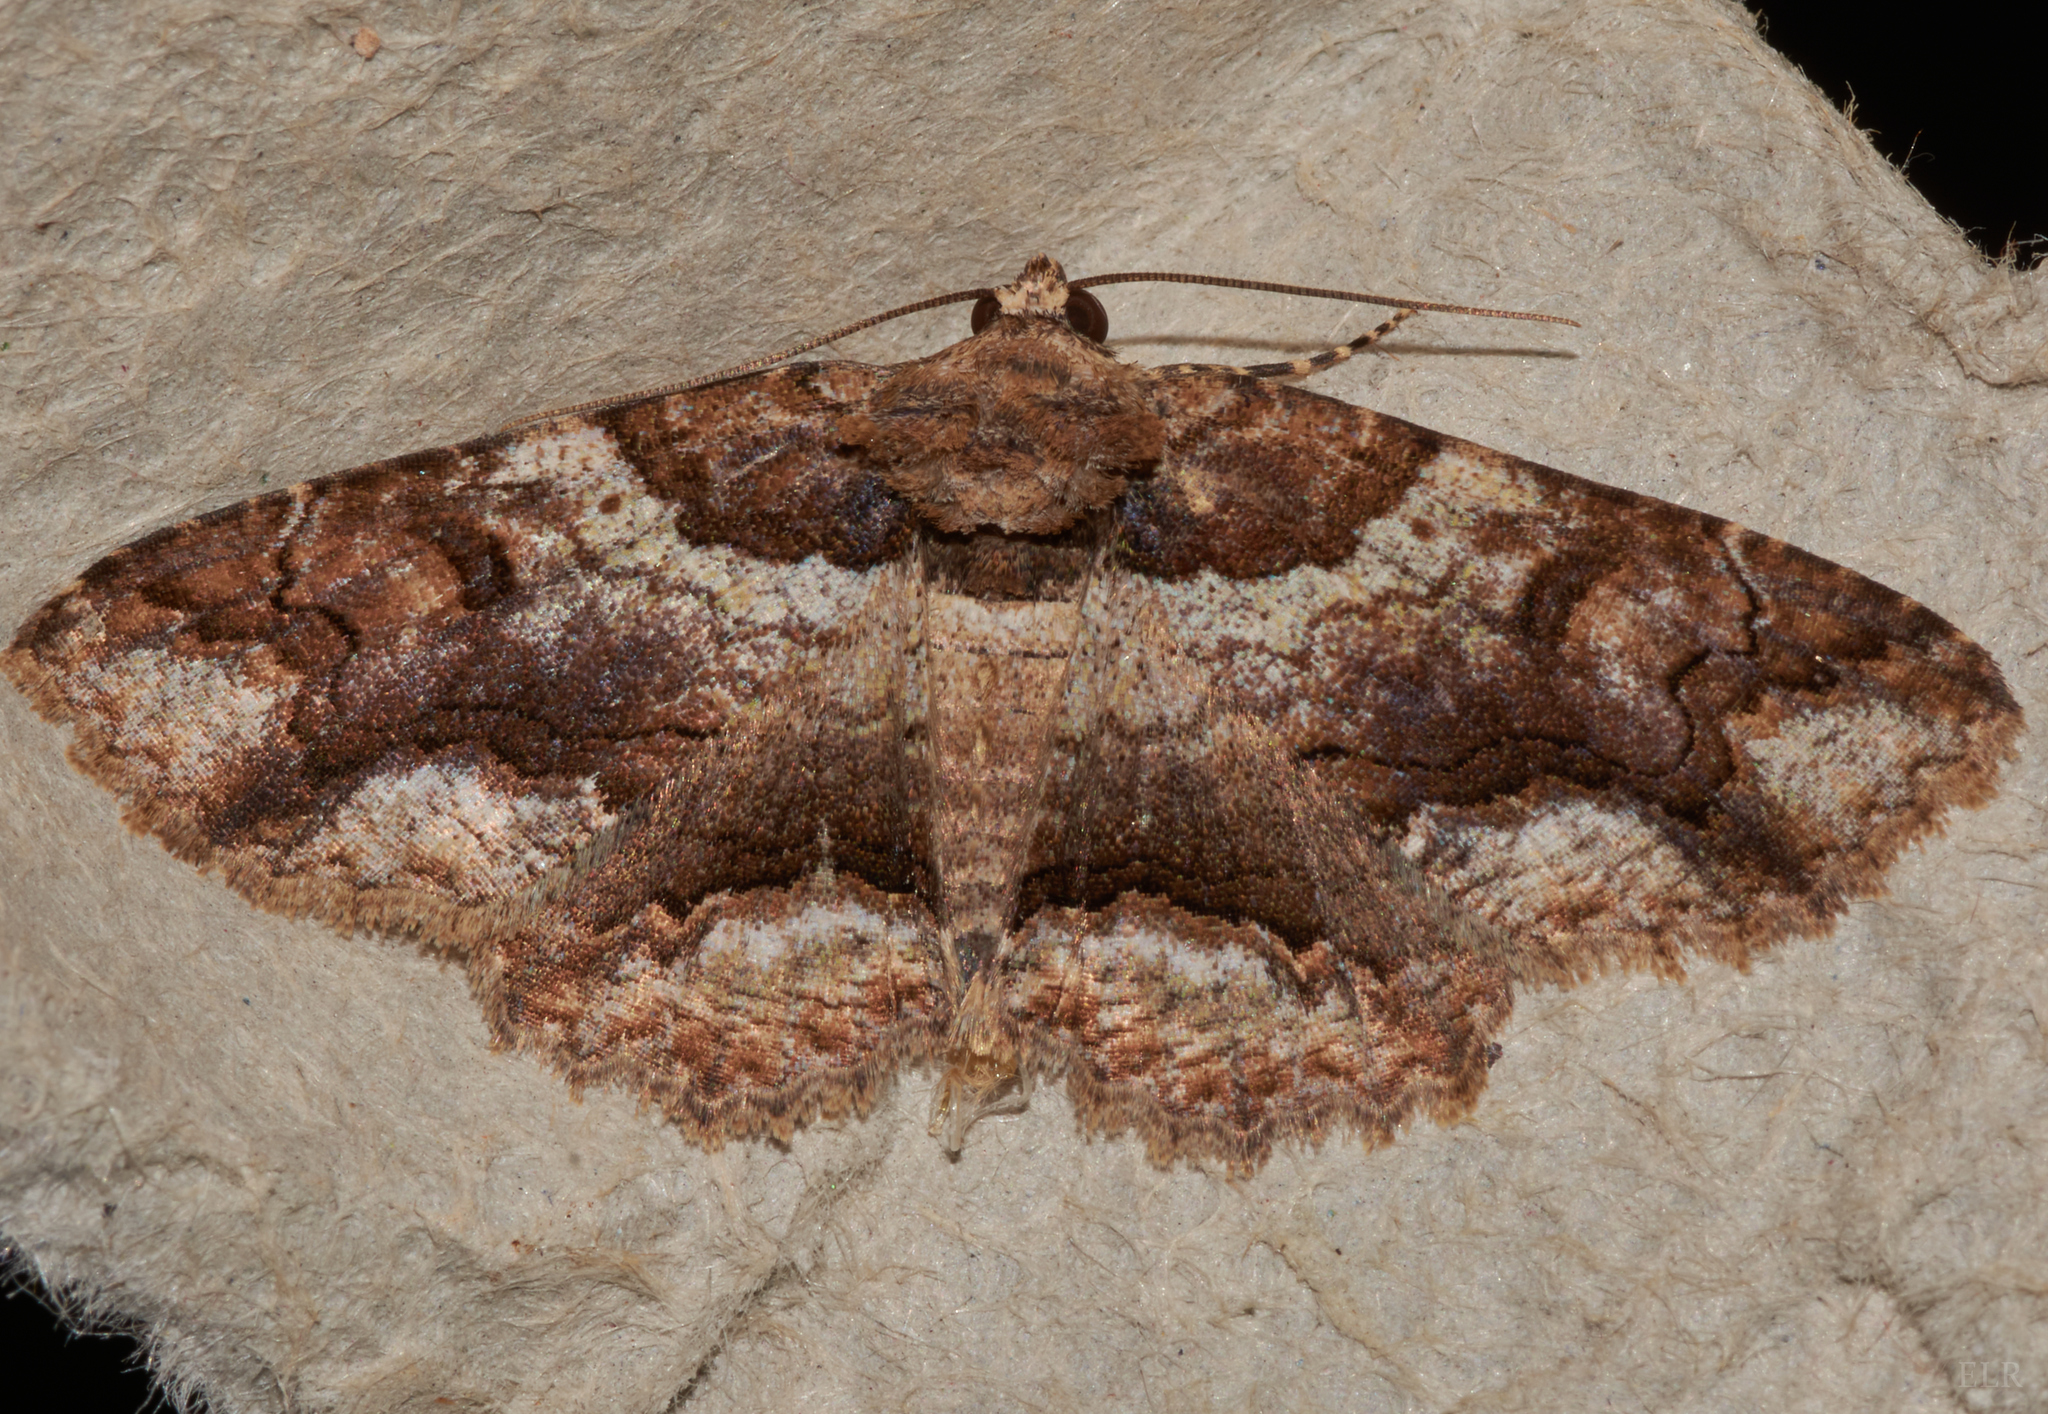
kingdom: Animalia
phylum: Arthropoda
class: Insecta
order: Lepidoptera
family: Erebidae
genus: Zale
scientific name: Zale galbanata
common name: Maple zale
